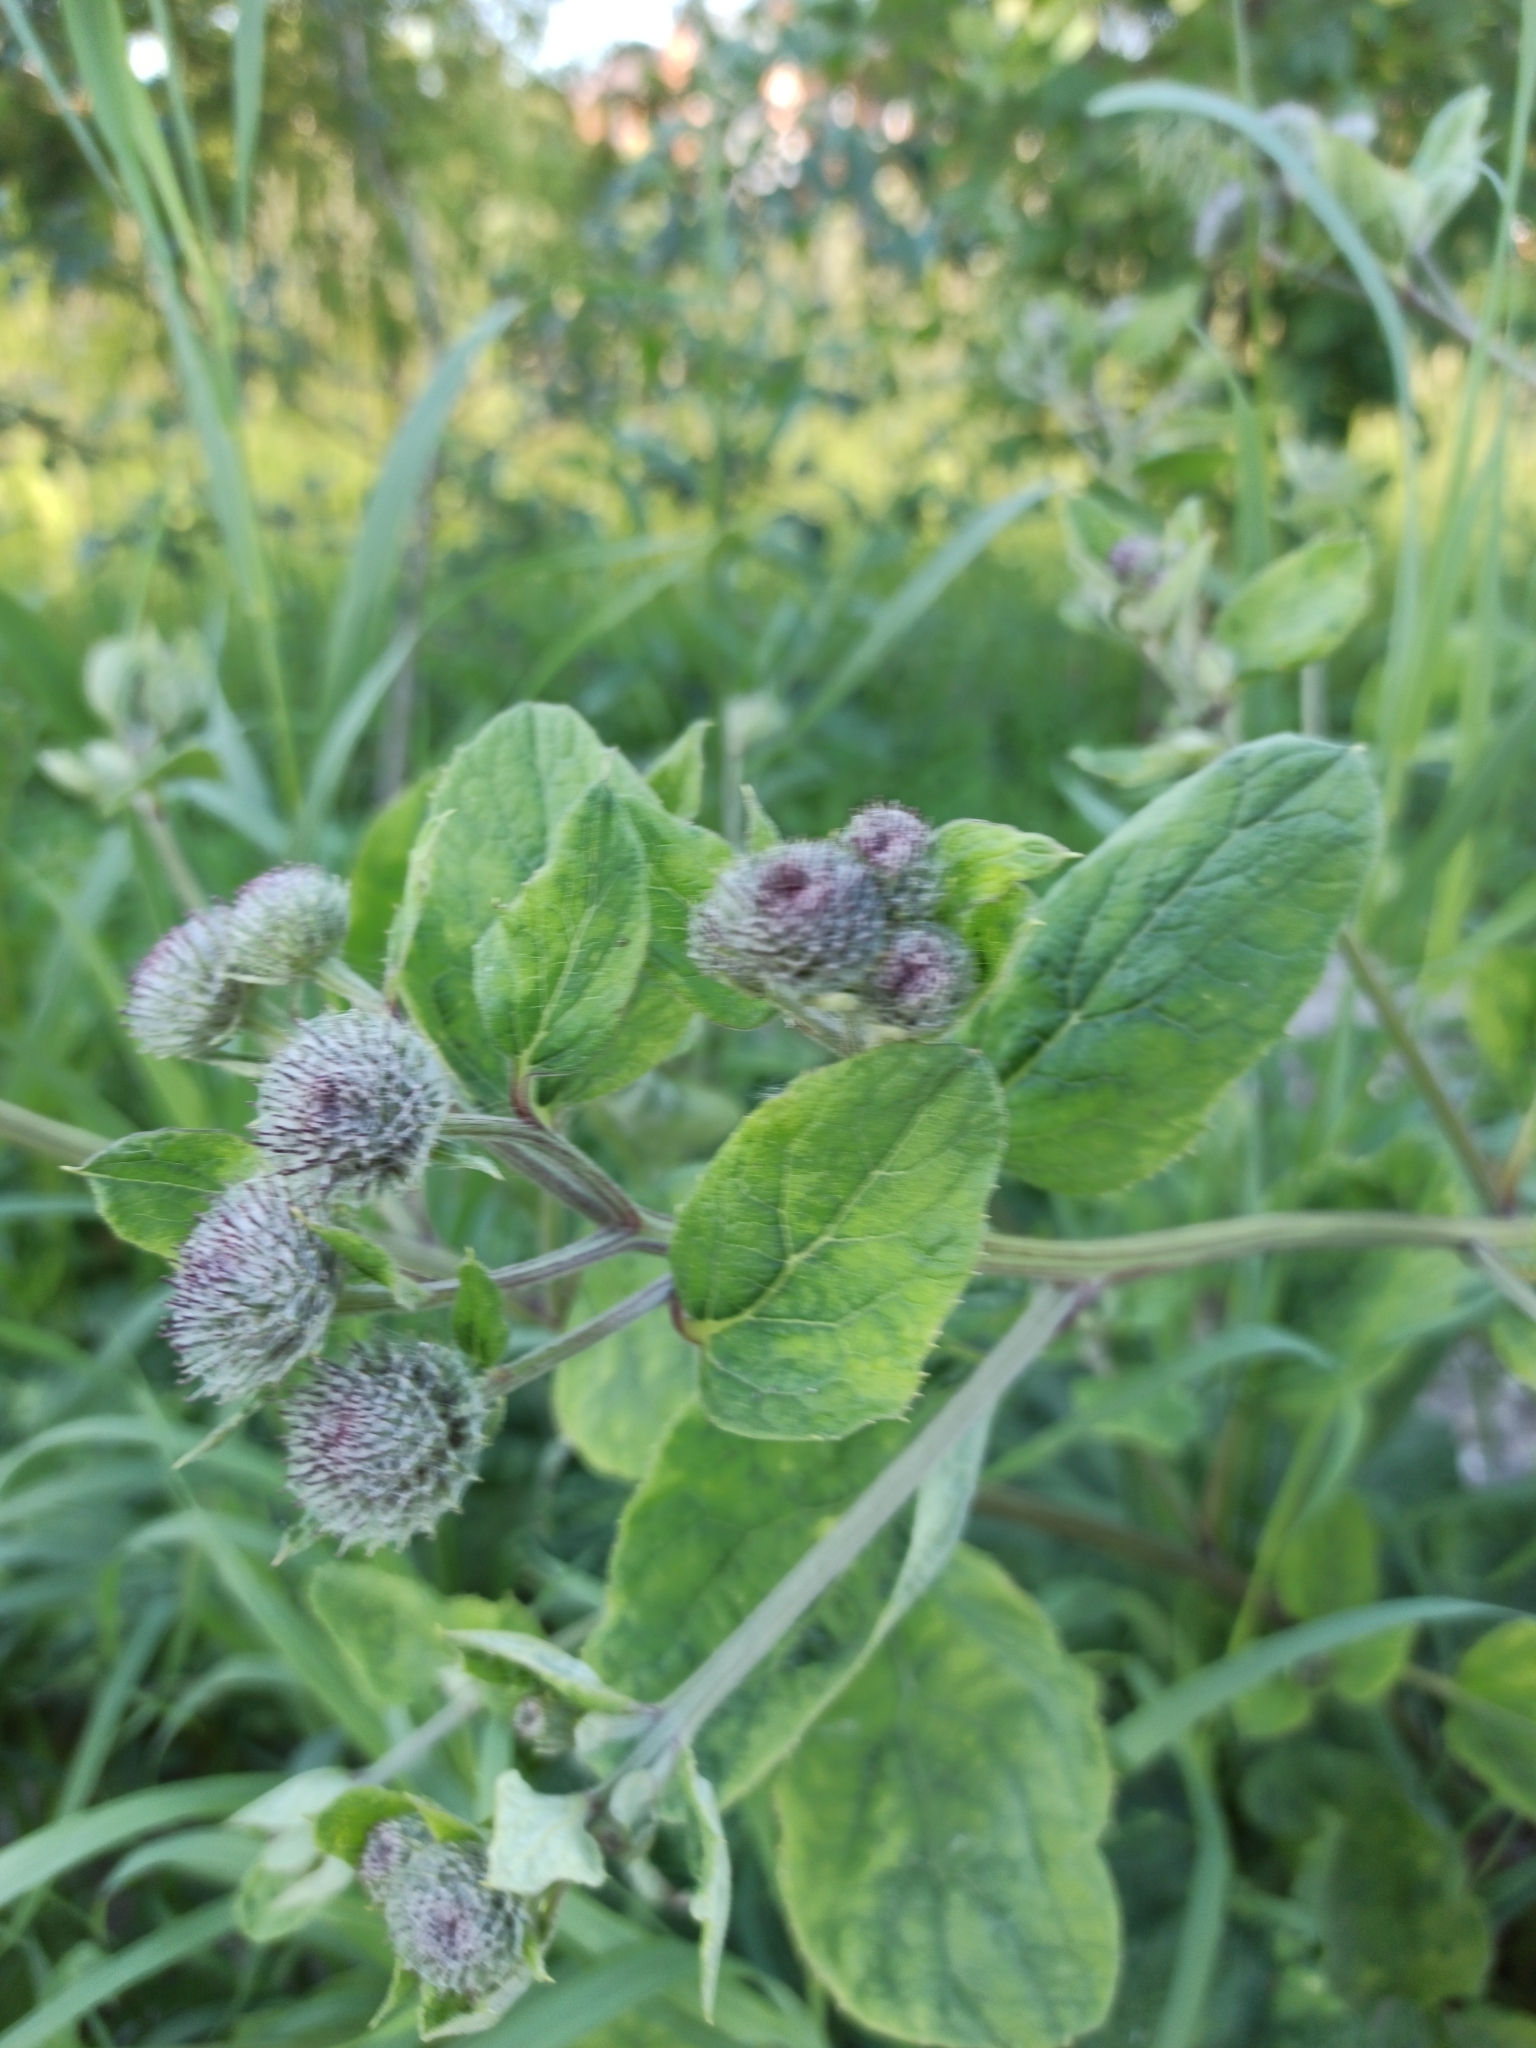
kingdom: Plantae
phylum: Tracheophyta
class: Magnoliopsida
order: Asterales
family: Asteraceae
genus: Arctium
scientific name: Arctium tomentosum
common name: Woolly burdock
